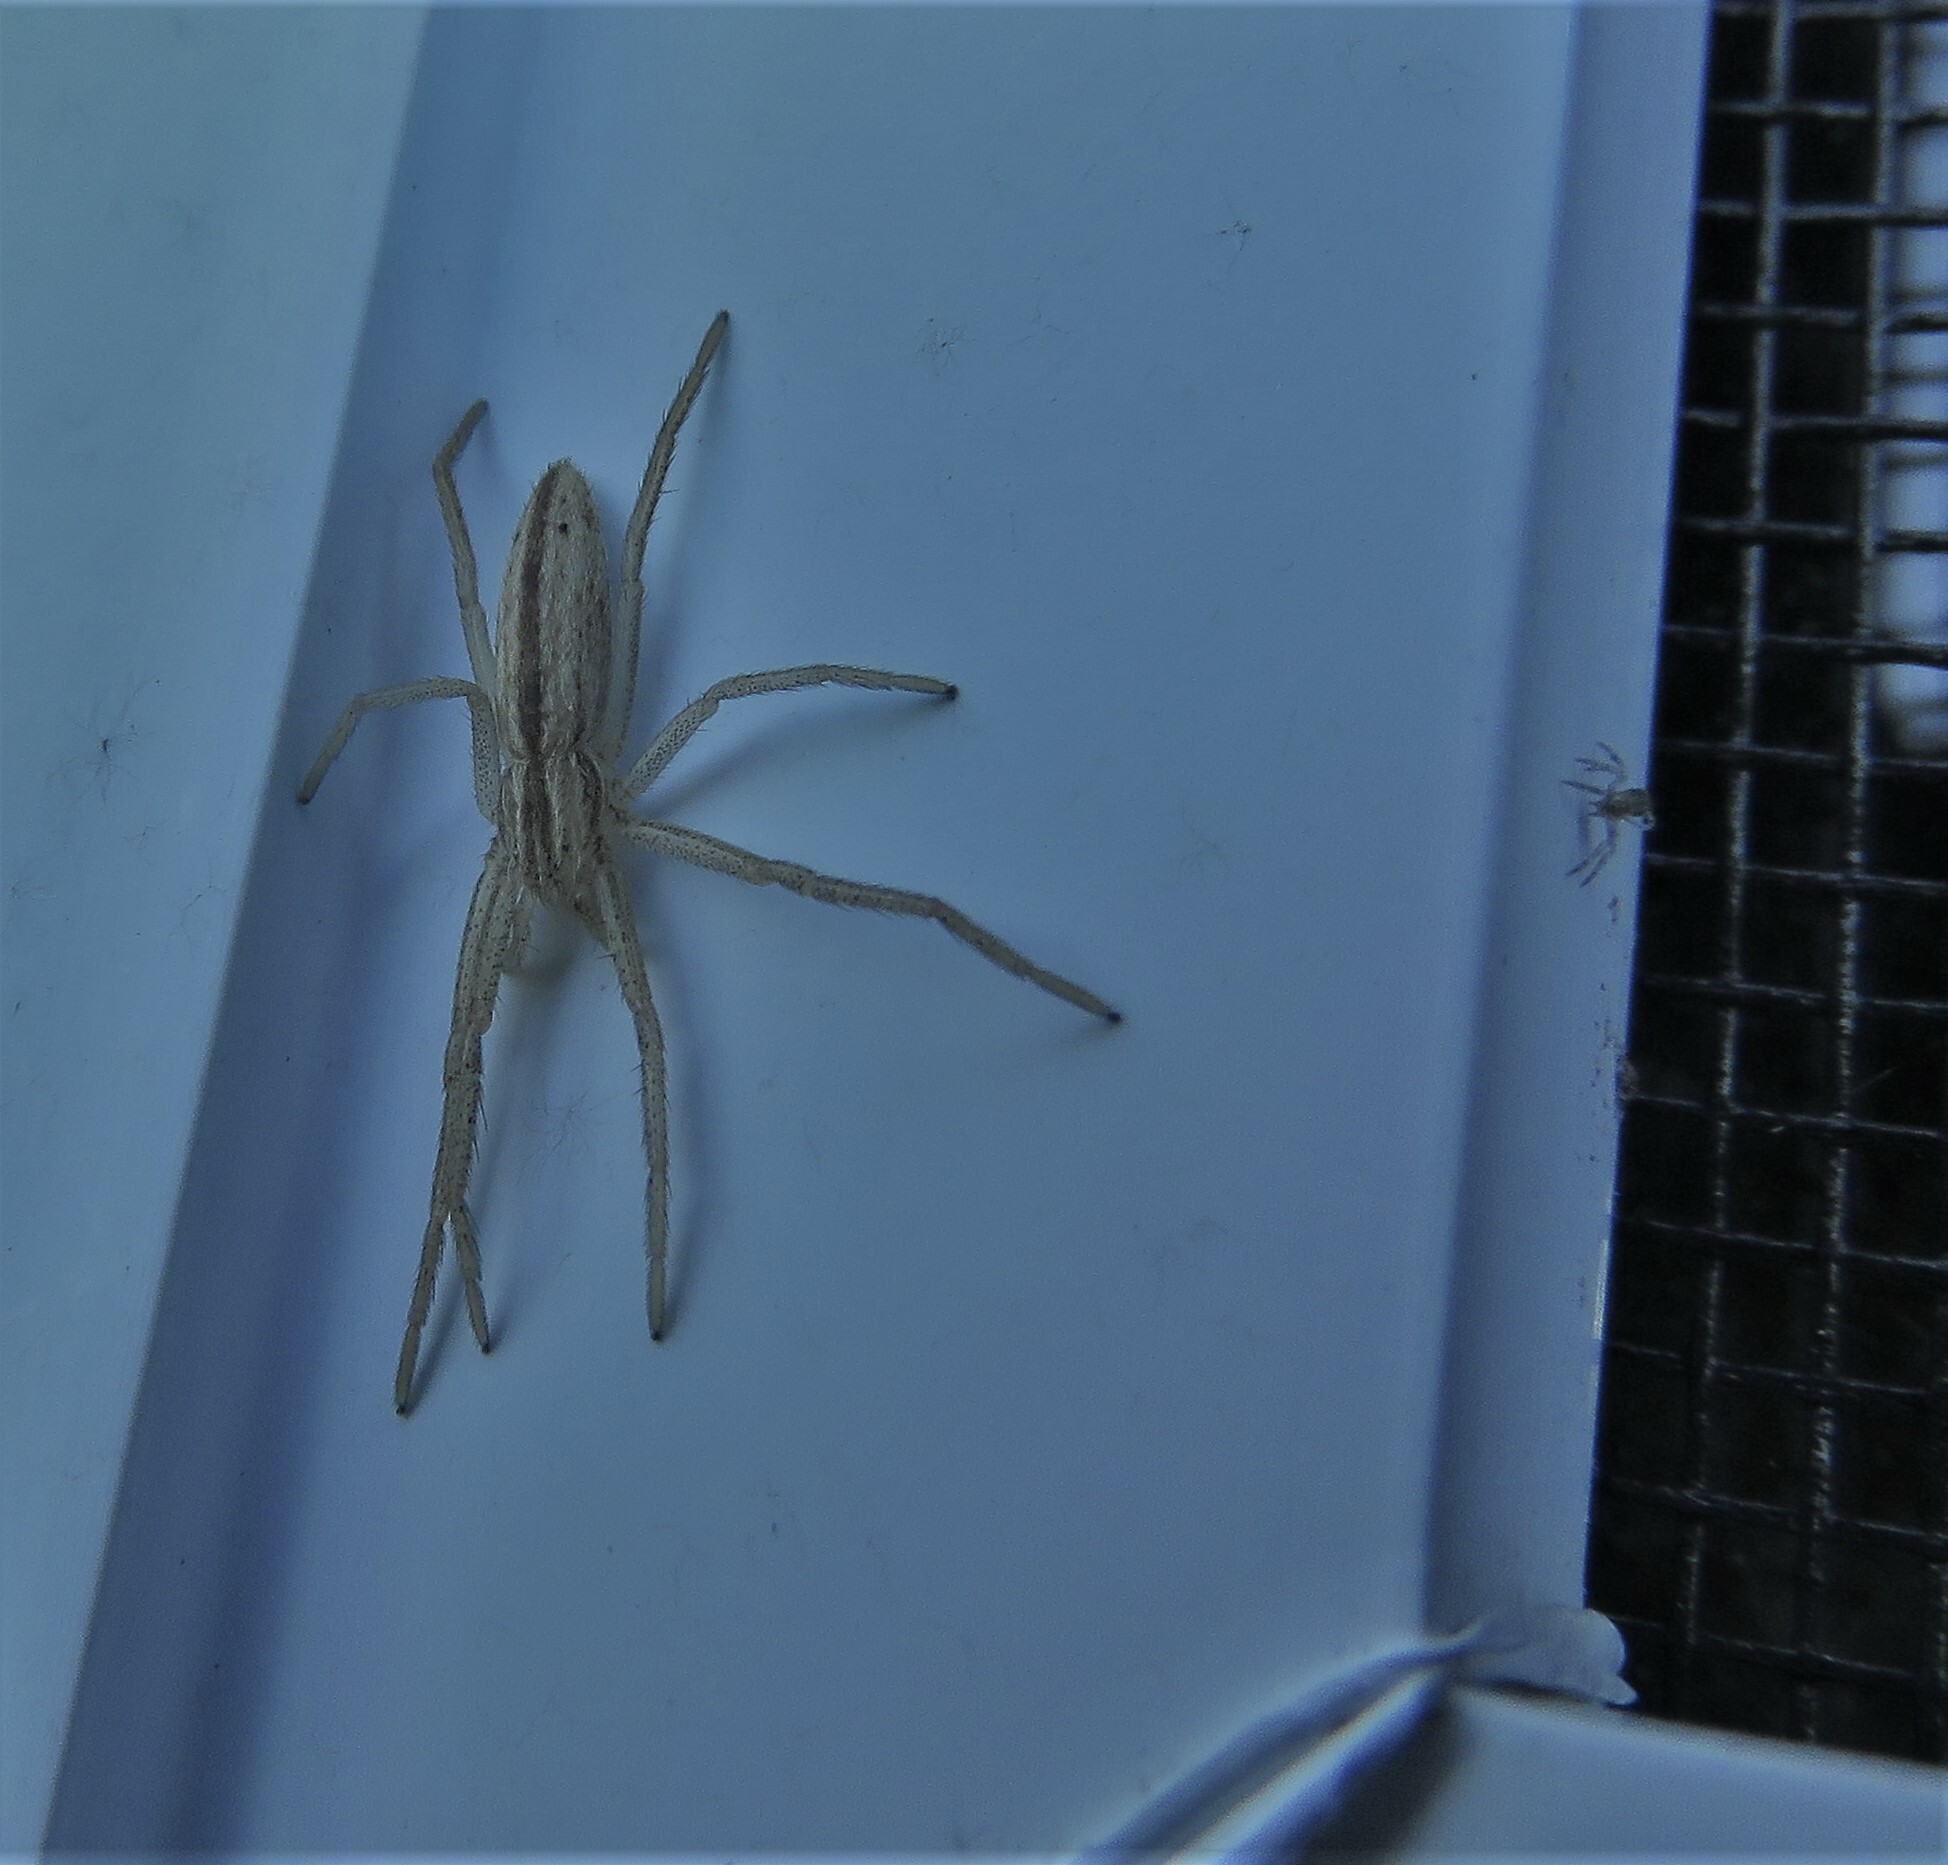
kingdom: Animalia
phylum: Arthropoda
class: Arachnida
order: Araneae
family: Philodromidae
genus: Tibellus
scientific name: Tibellus oblongus
